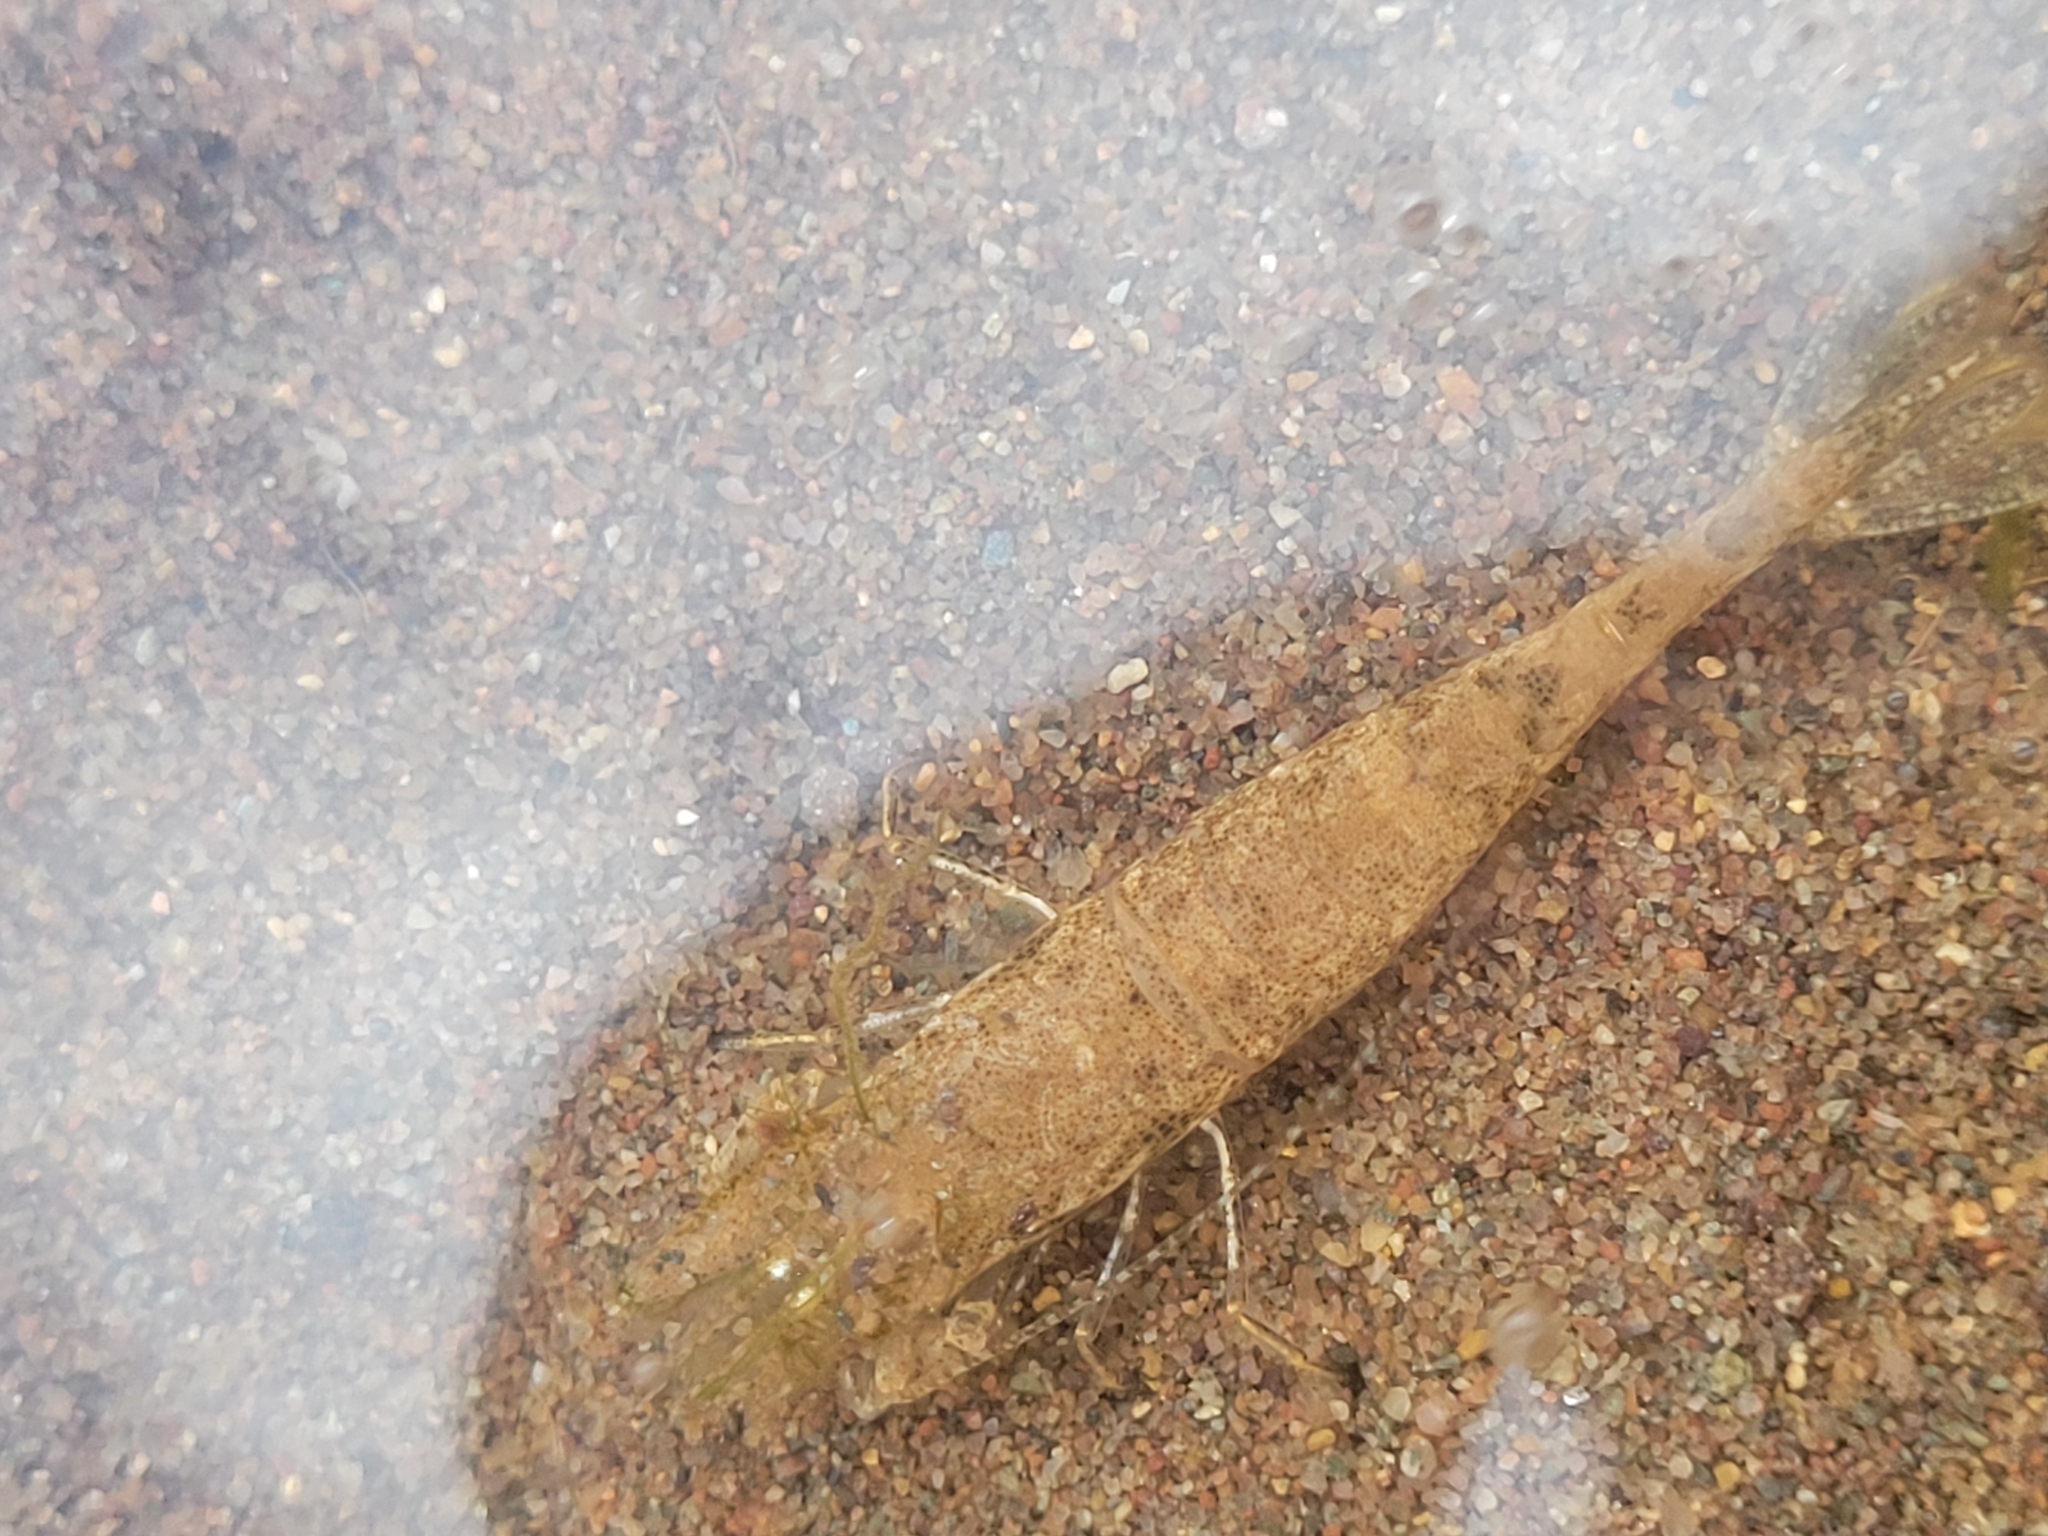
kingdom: Animalia
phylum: Arthropoda
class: Malacostraca
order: Decapoda
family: Crangonidae
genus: Crangon
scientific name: Crangon septemspinosa
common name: Bail shrimp
